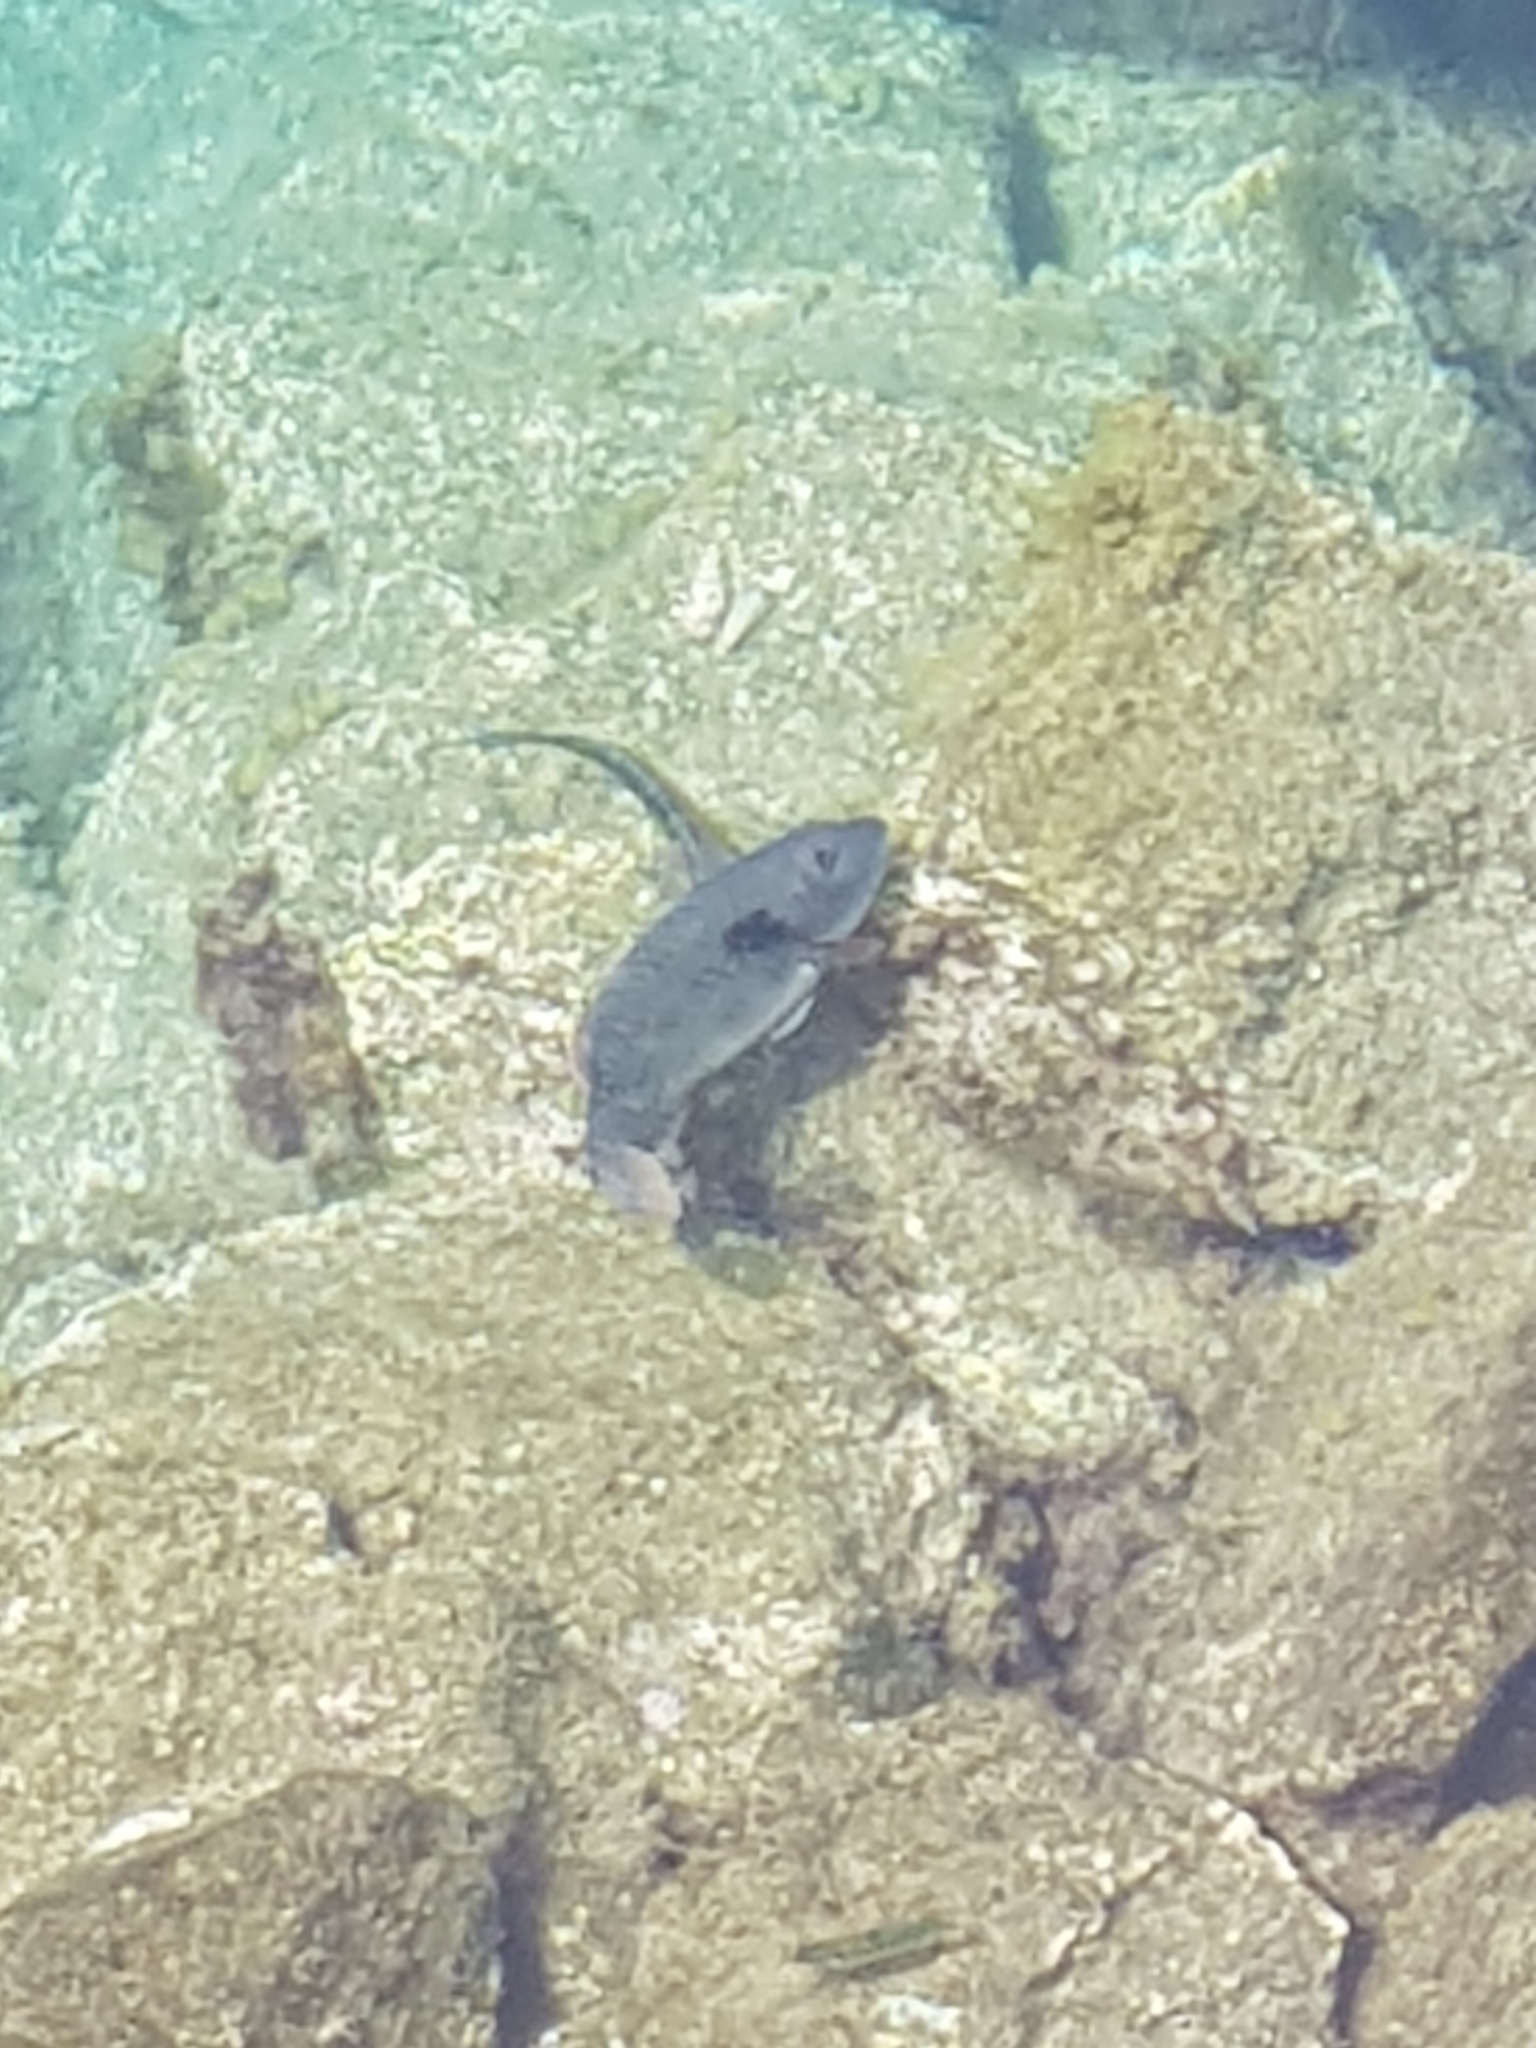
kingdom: Animalia
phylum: Chordata
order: Perciformes
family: Scaridae
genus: Sparisoma
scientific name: Sparisoma cretense
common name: Parrotfish
